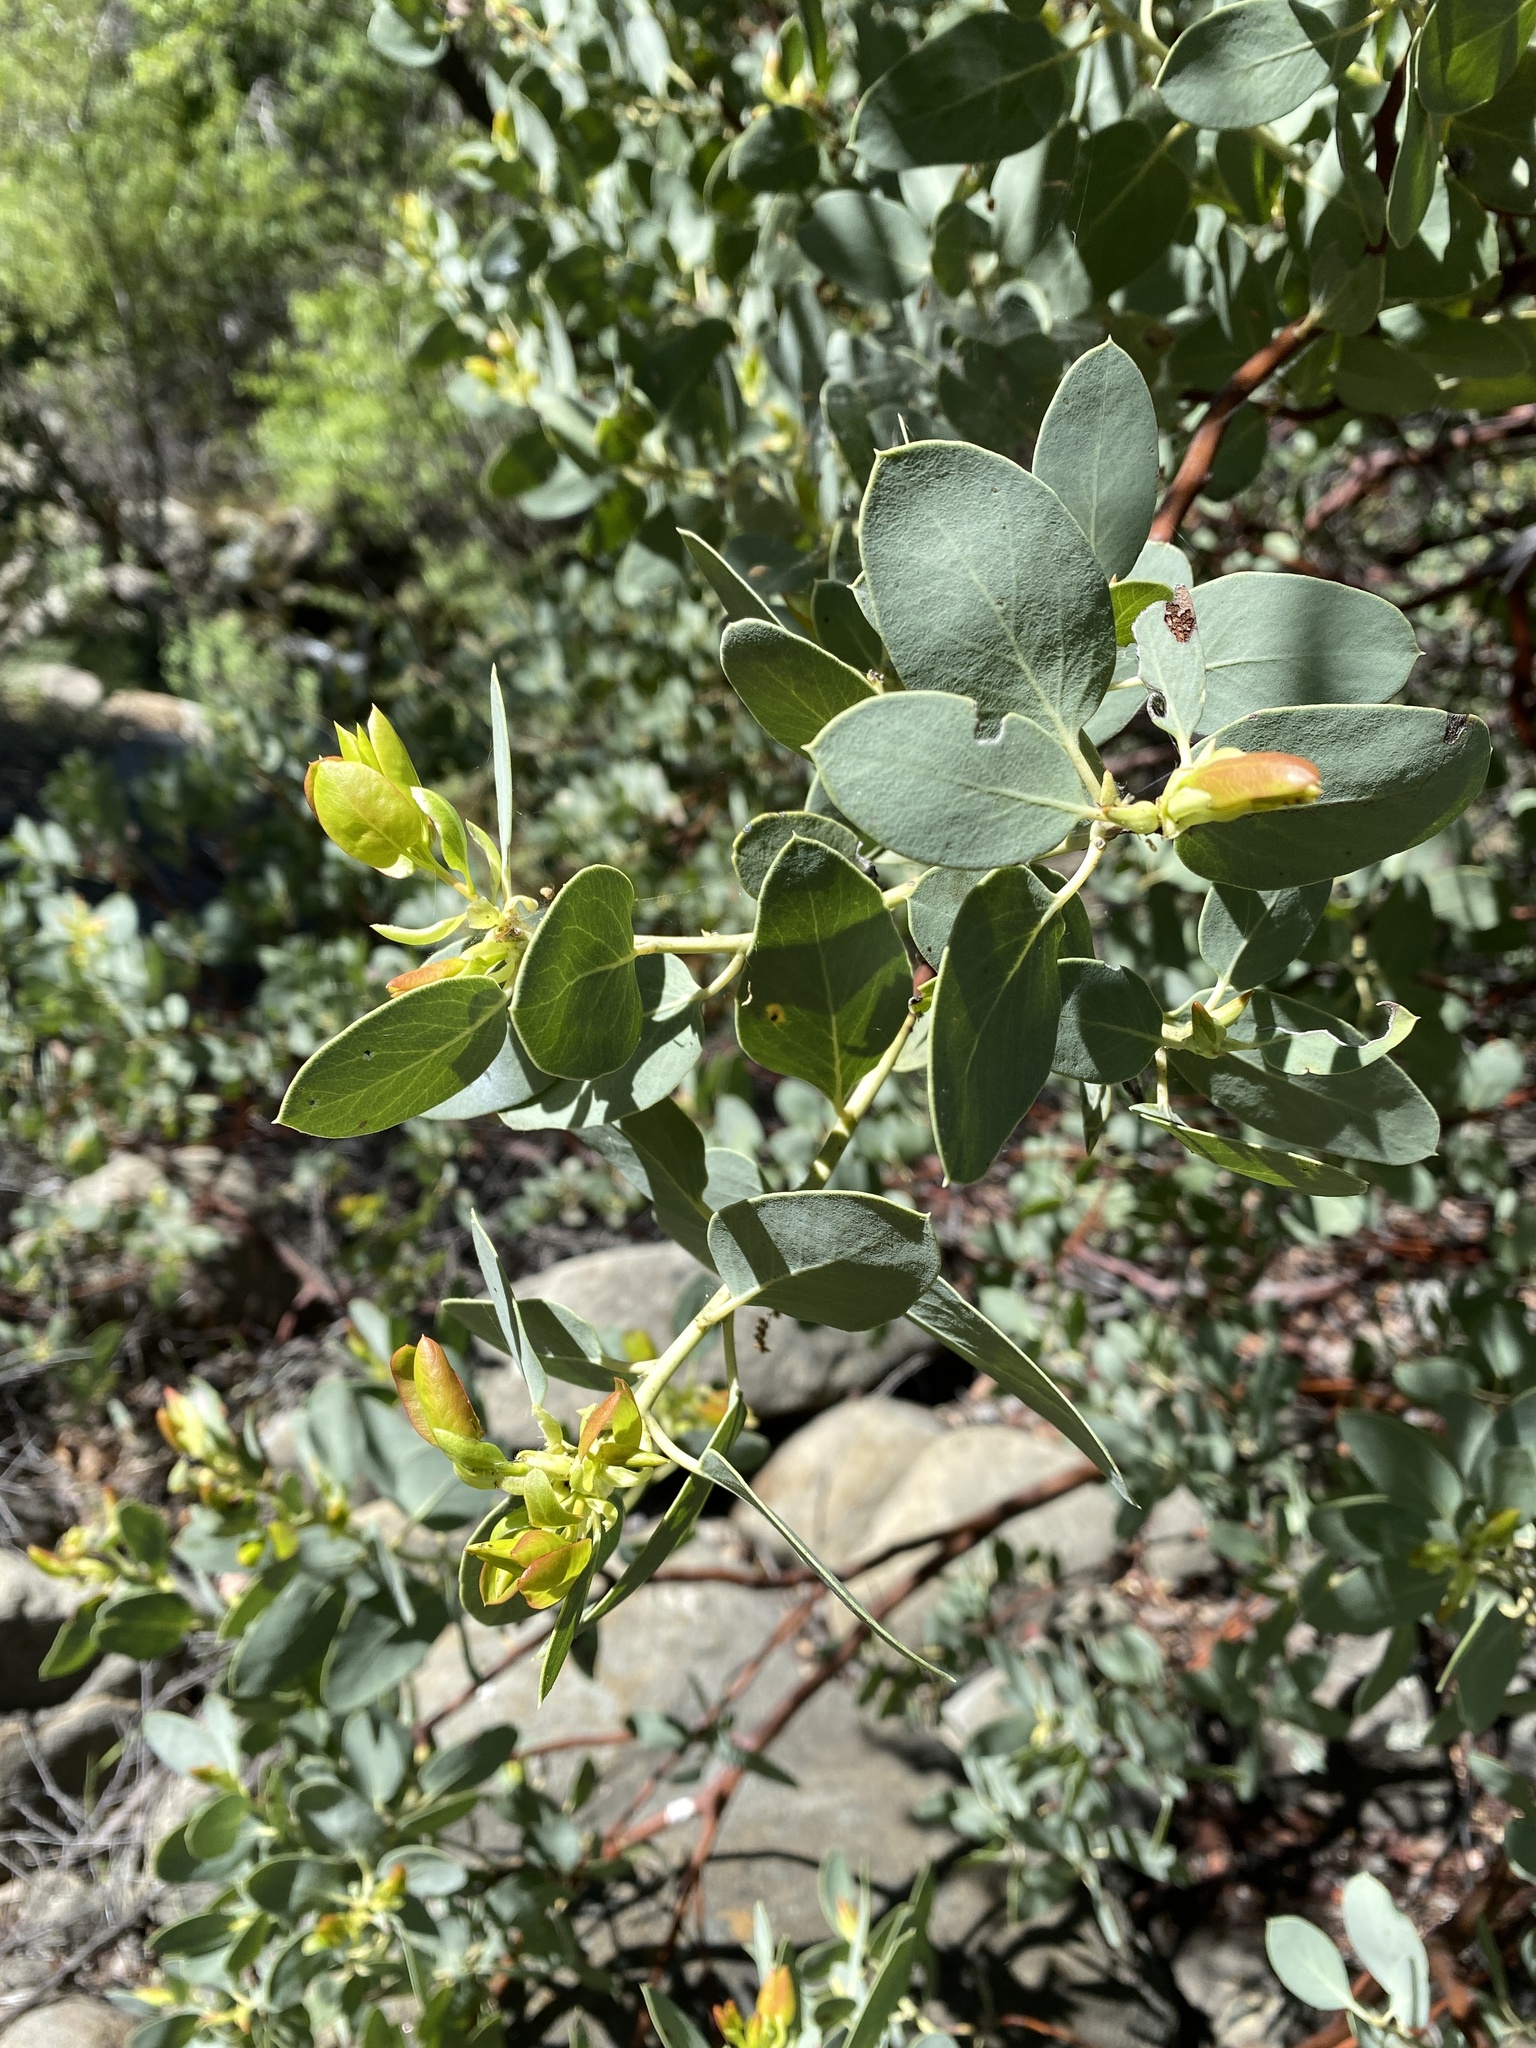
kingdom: Plantae
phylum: Tracheophyta
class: Magnoliopsida
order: Ericales
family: Ericaceae
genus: Arctostaphylos
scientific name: Arctostaphylos glauca
